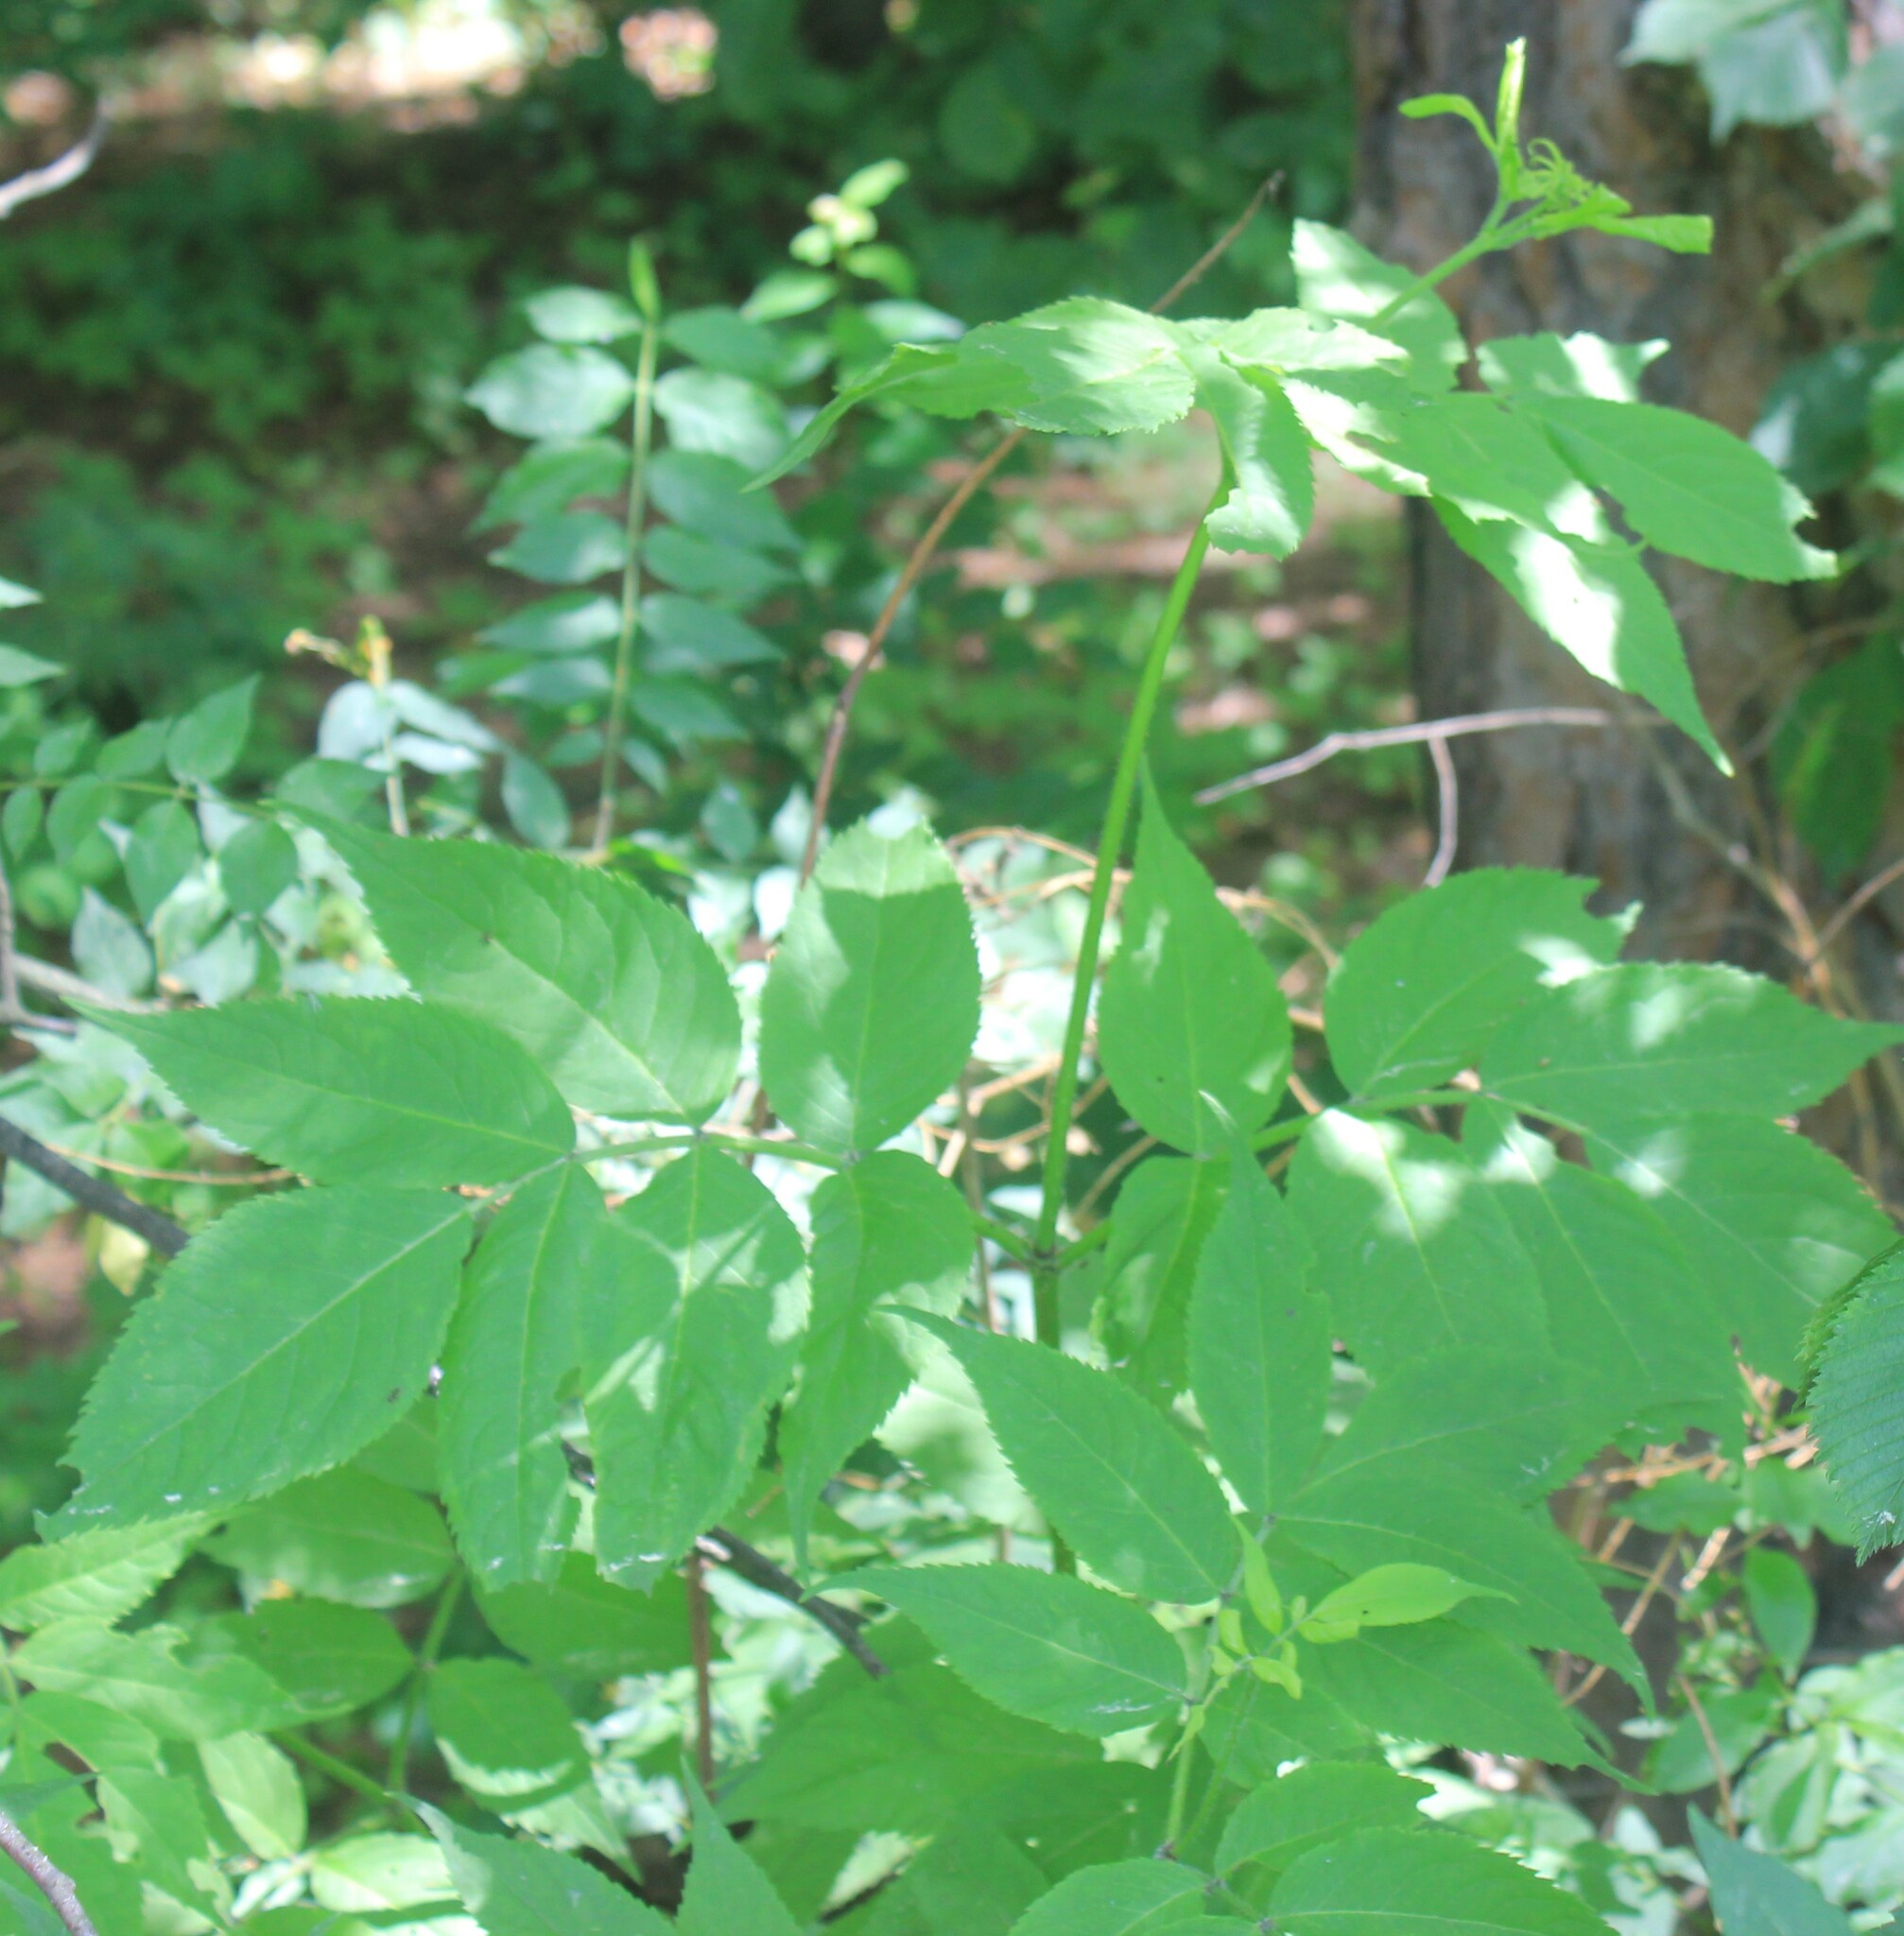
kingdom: Plantae
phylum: Tracheophyta
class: Magnoliopsida
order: Dipsacales
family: Viburnaceae
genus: Sambucus
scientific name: Sambucus racemosa
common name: Red-berried elder
